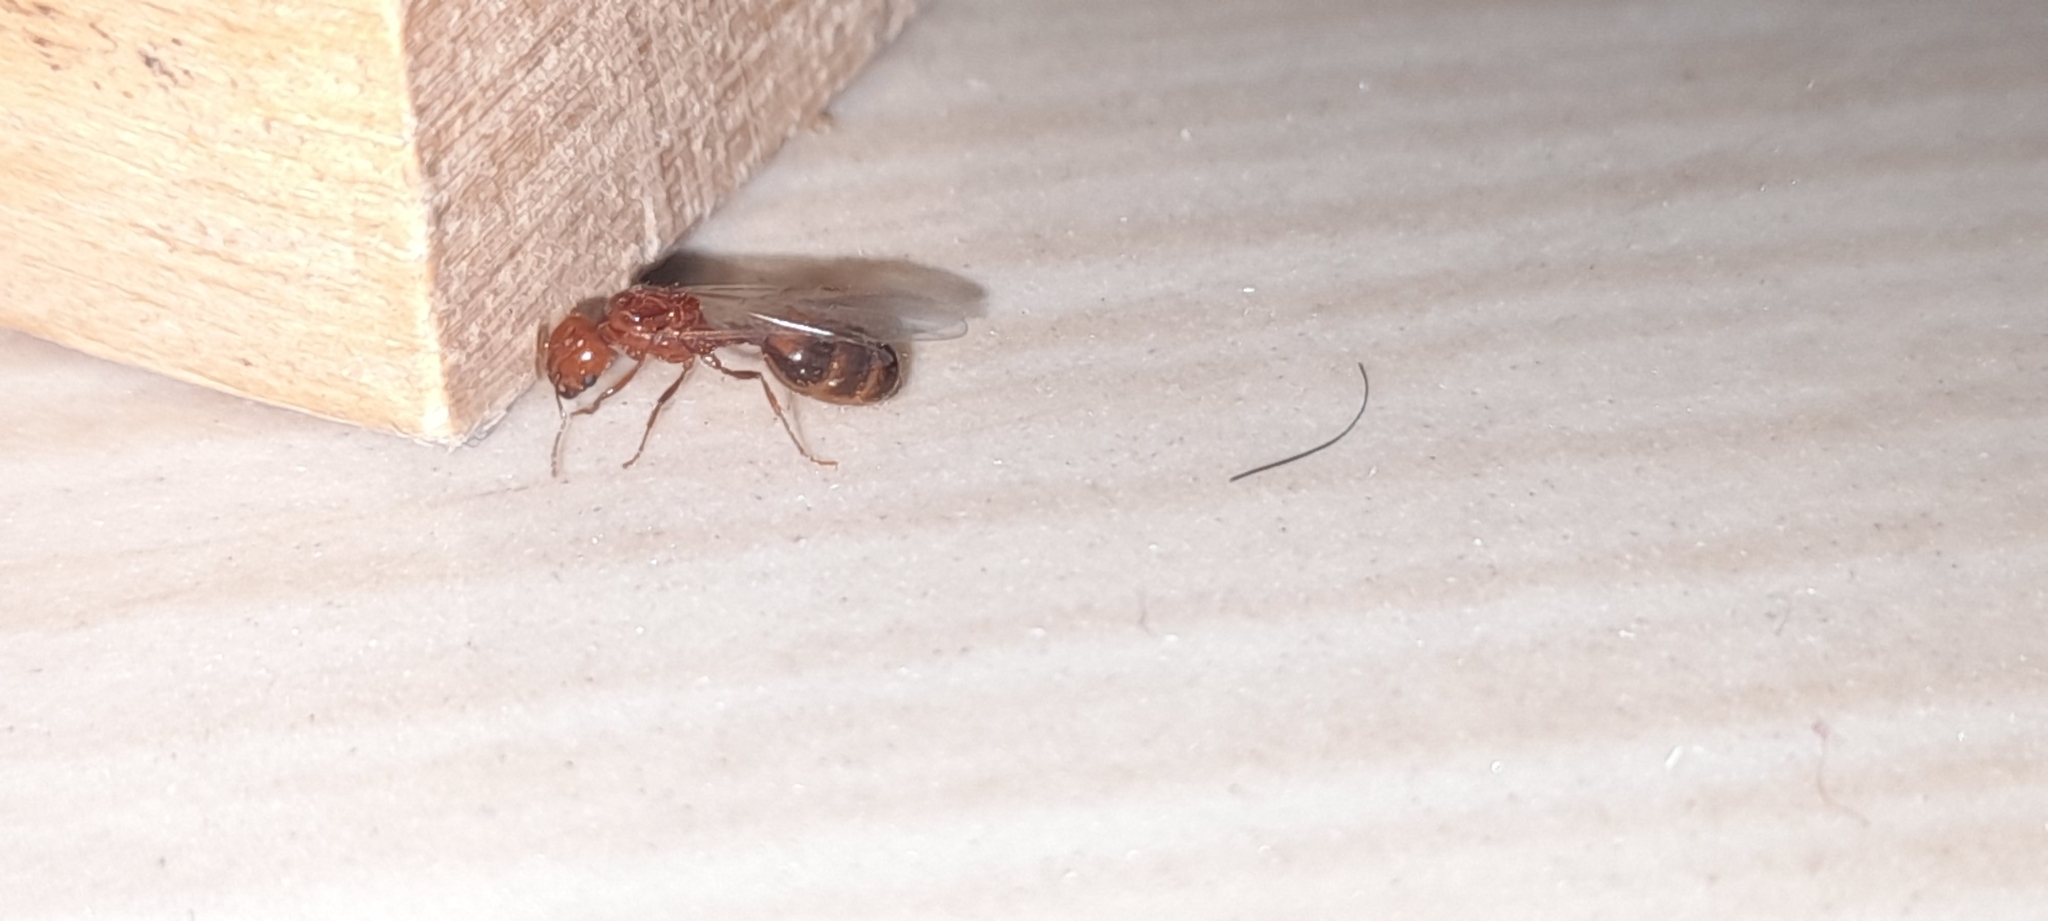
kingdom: Animalia
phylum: Arthropoda
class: Insecta
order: Hymenoptera
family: Formicidae
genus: Solenopsis
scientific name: Solenopsis geminata
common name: Tropical fire ant
